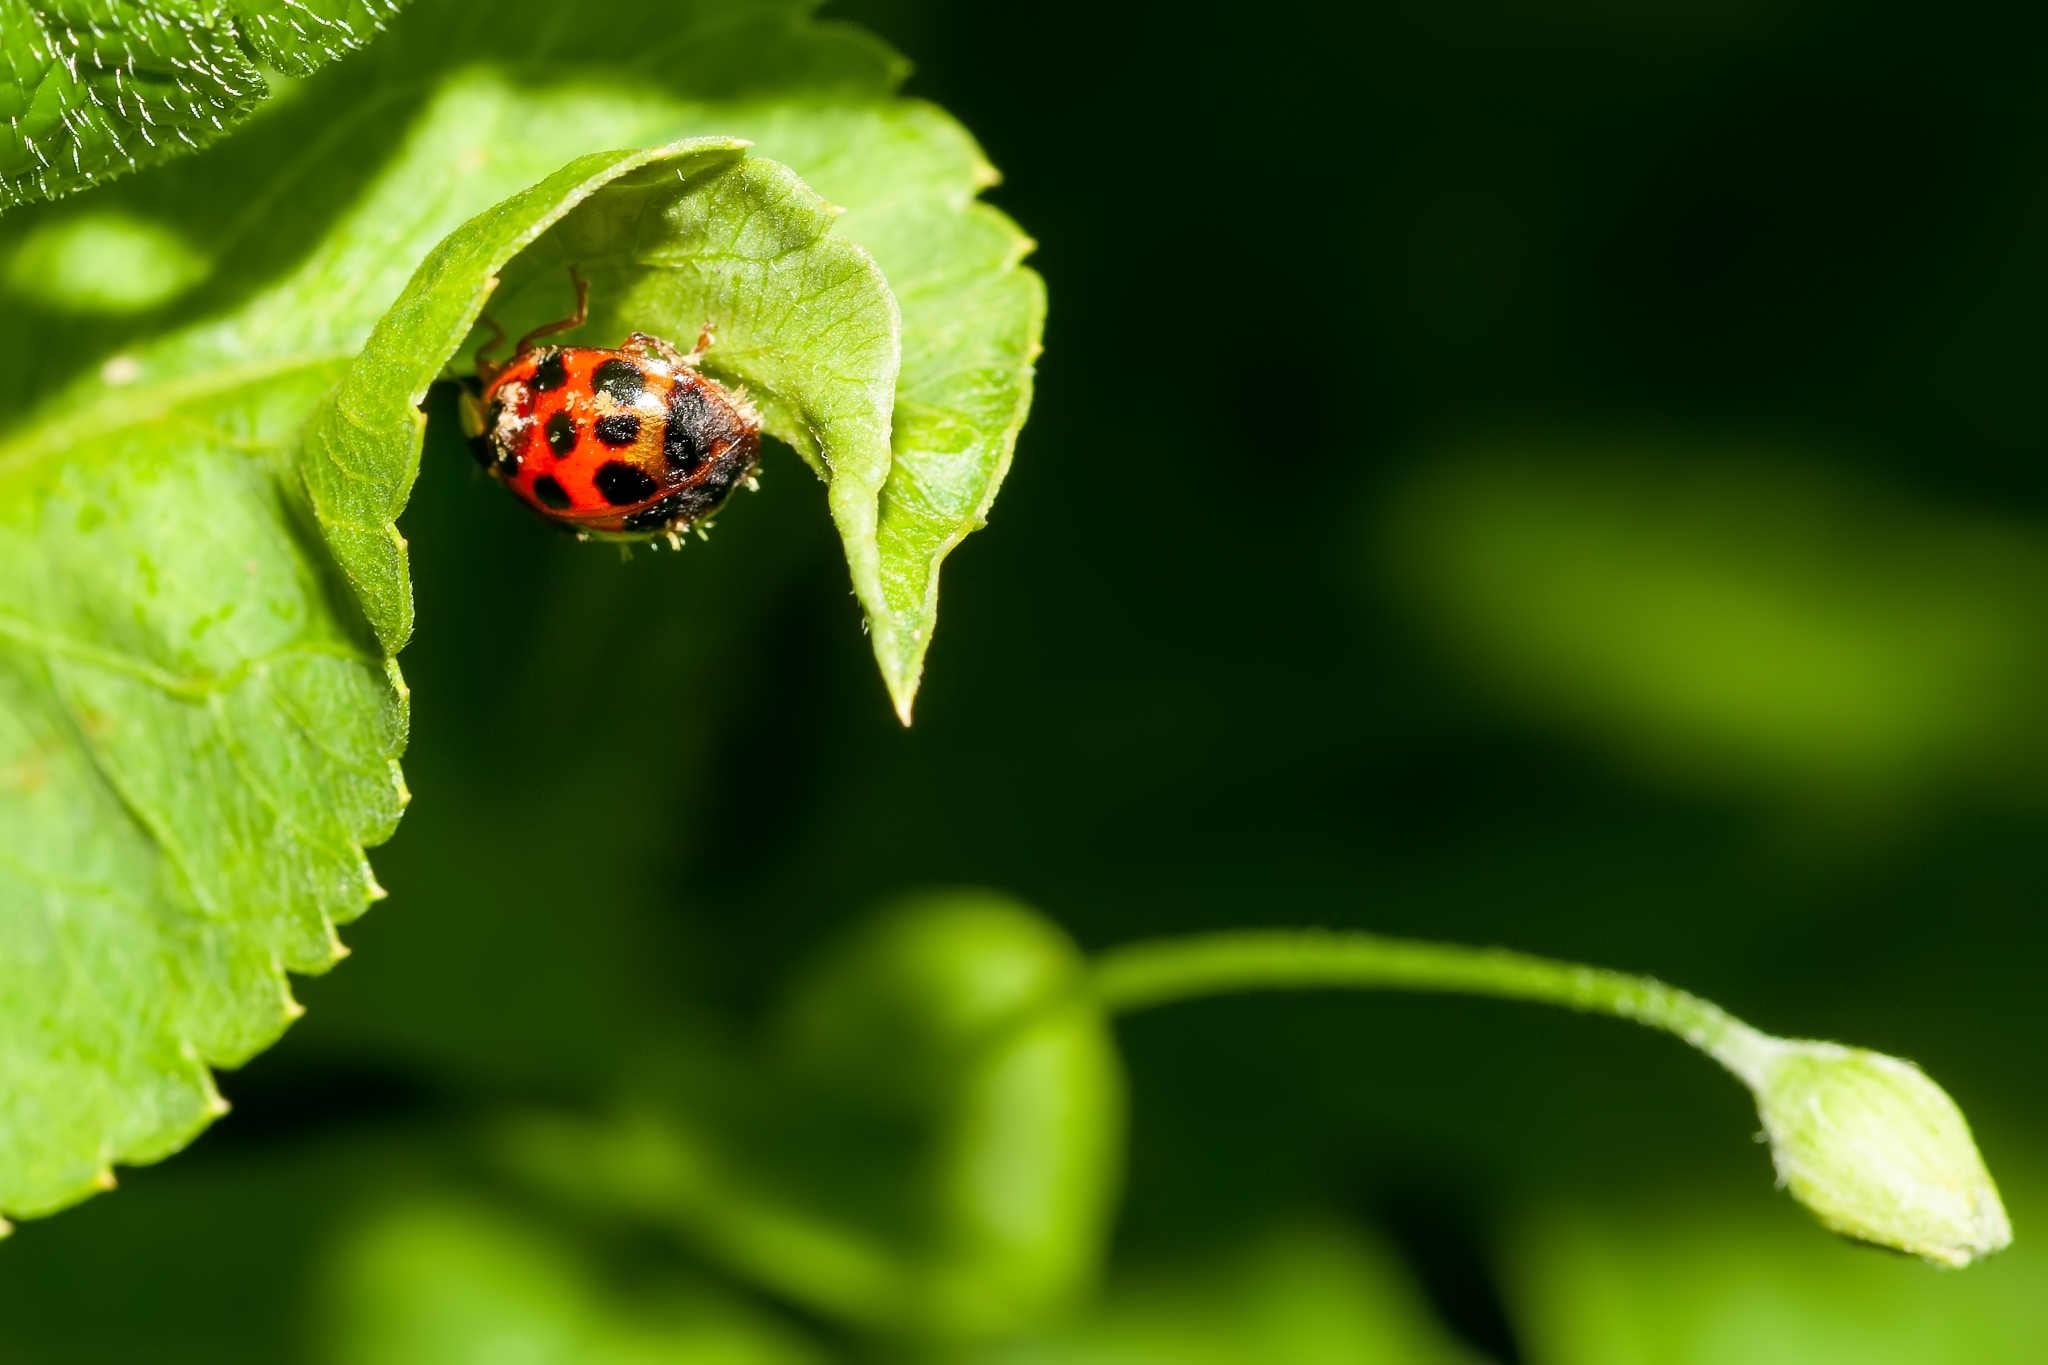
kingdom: Animalia
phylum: Arthropoda
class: Insecta
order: Coleoptera
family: Coccinellidae
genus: Harmonia
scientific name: Harmonia axyridis
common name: Harlequin ladybird
